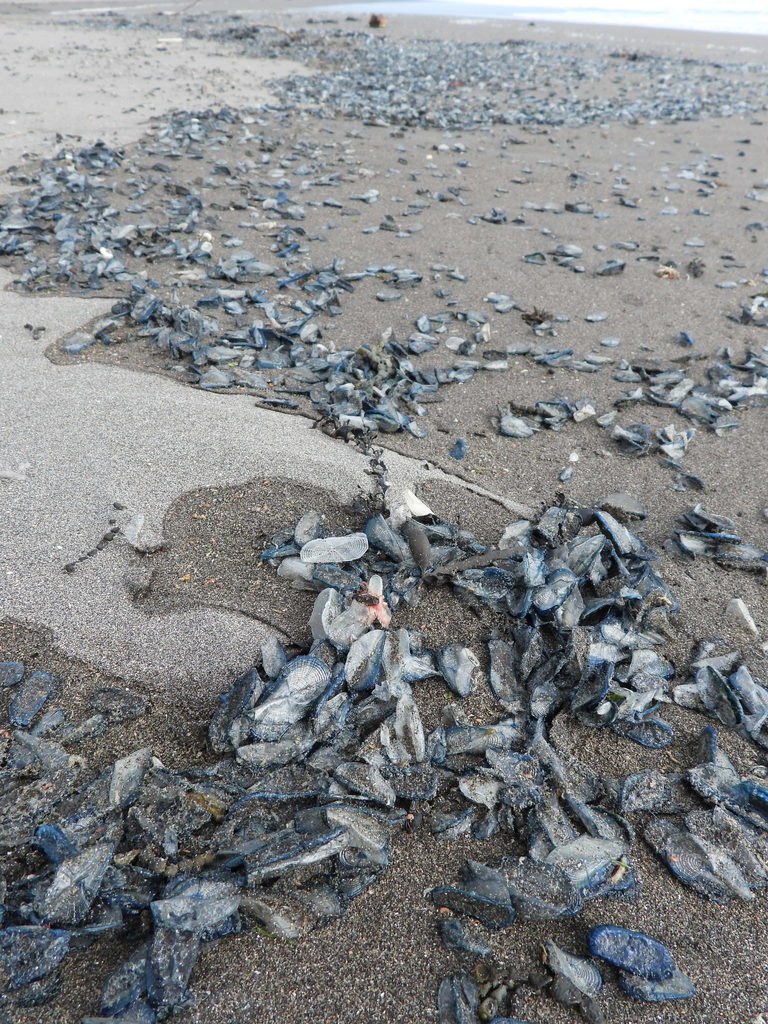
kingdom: Animalia
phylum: Cnidaria
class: Hydrozoa
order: Anthoathecata
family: Porpitidae
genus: Velella
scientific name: Velella velella
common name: By-the-wind-sailor
